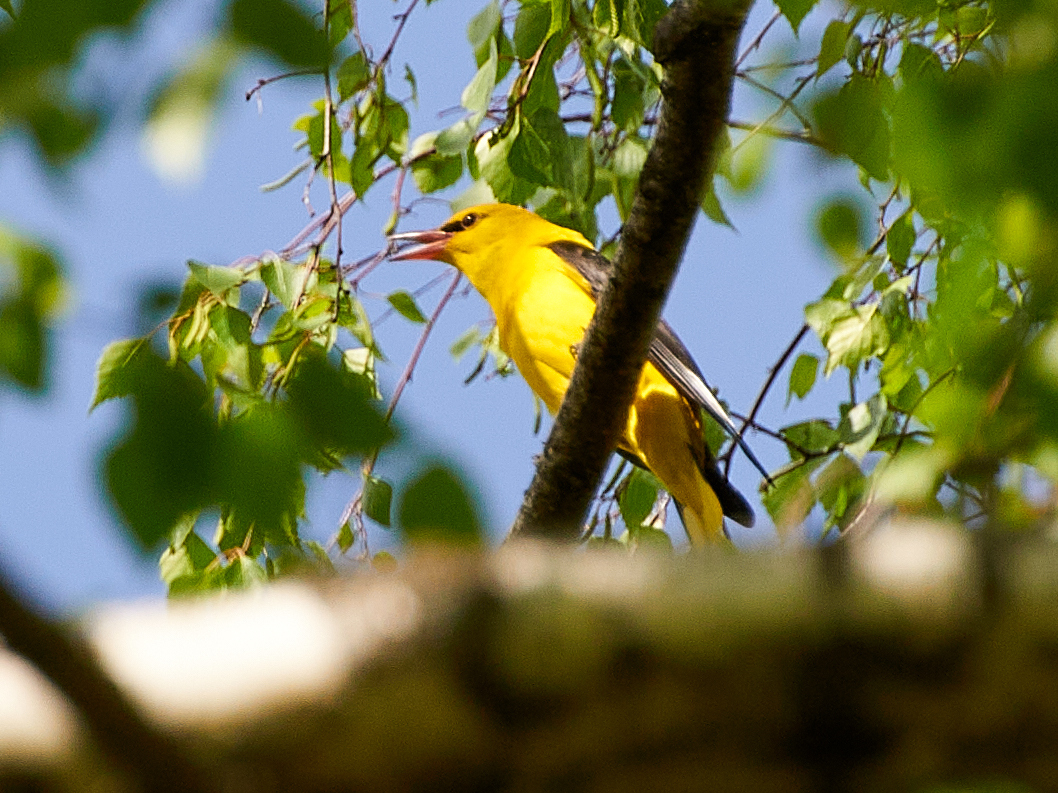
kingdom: Animalia
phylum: Chordata
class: Aves
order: Passeriformes
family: Oriolidae
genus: Oriolus
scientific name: Oriolus oriolus
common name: Eurasian golden oriole
